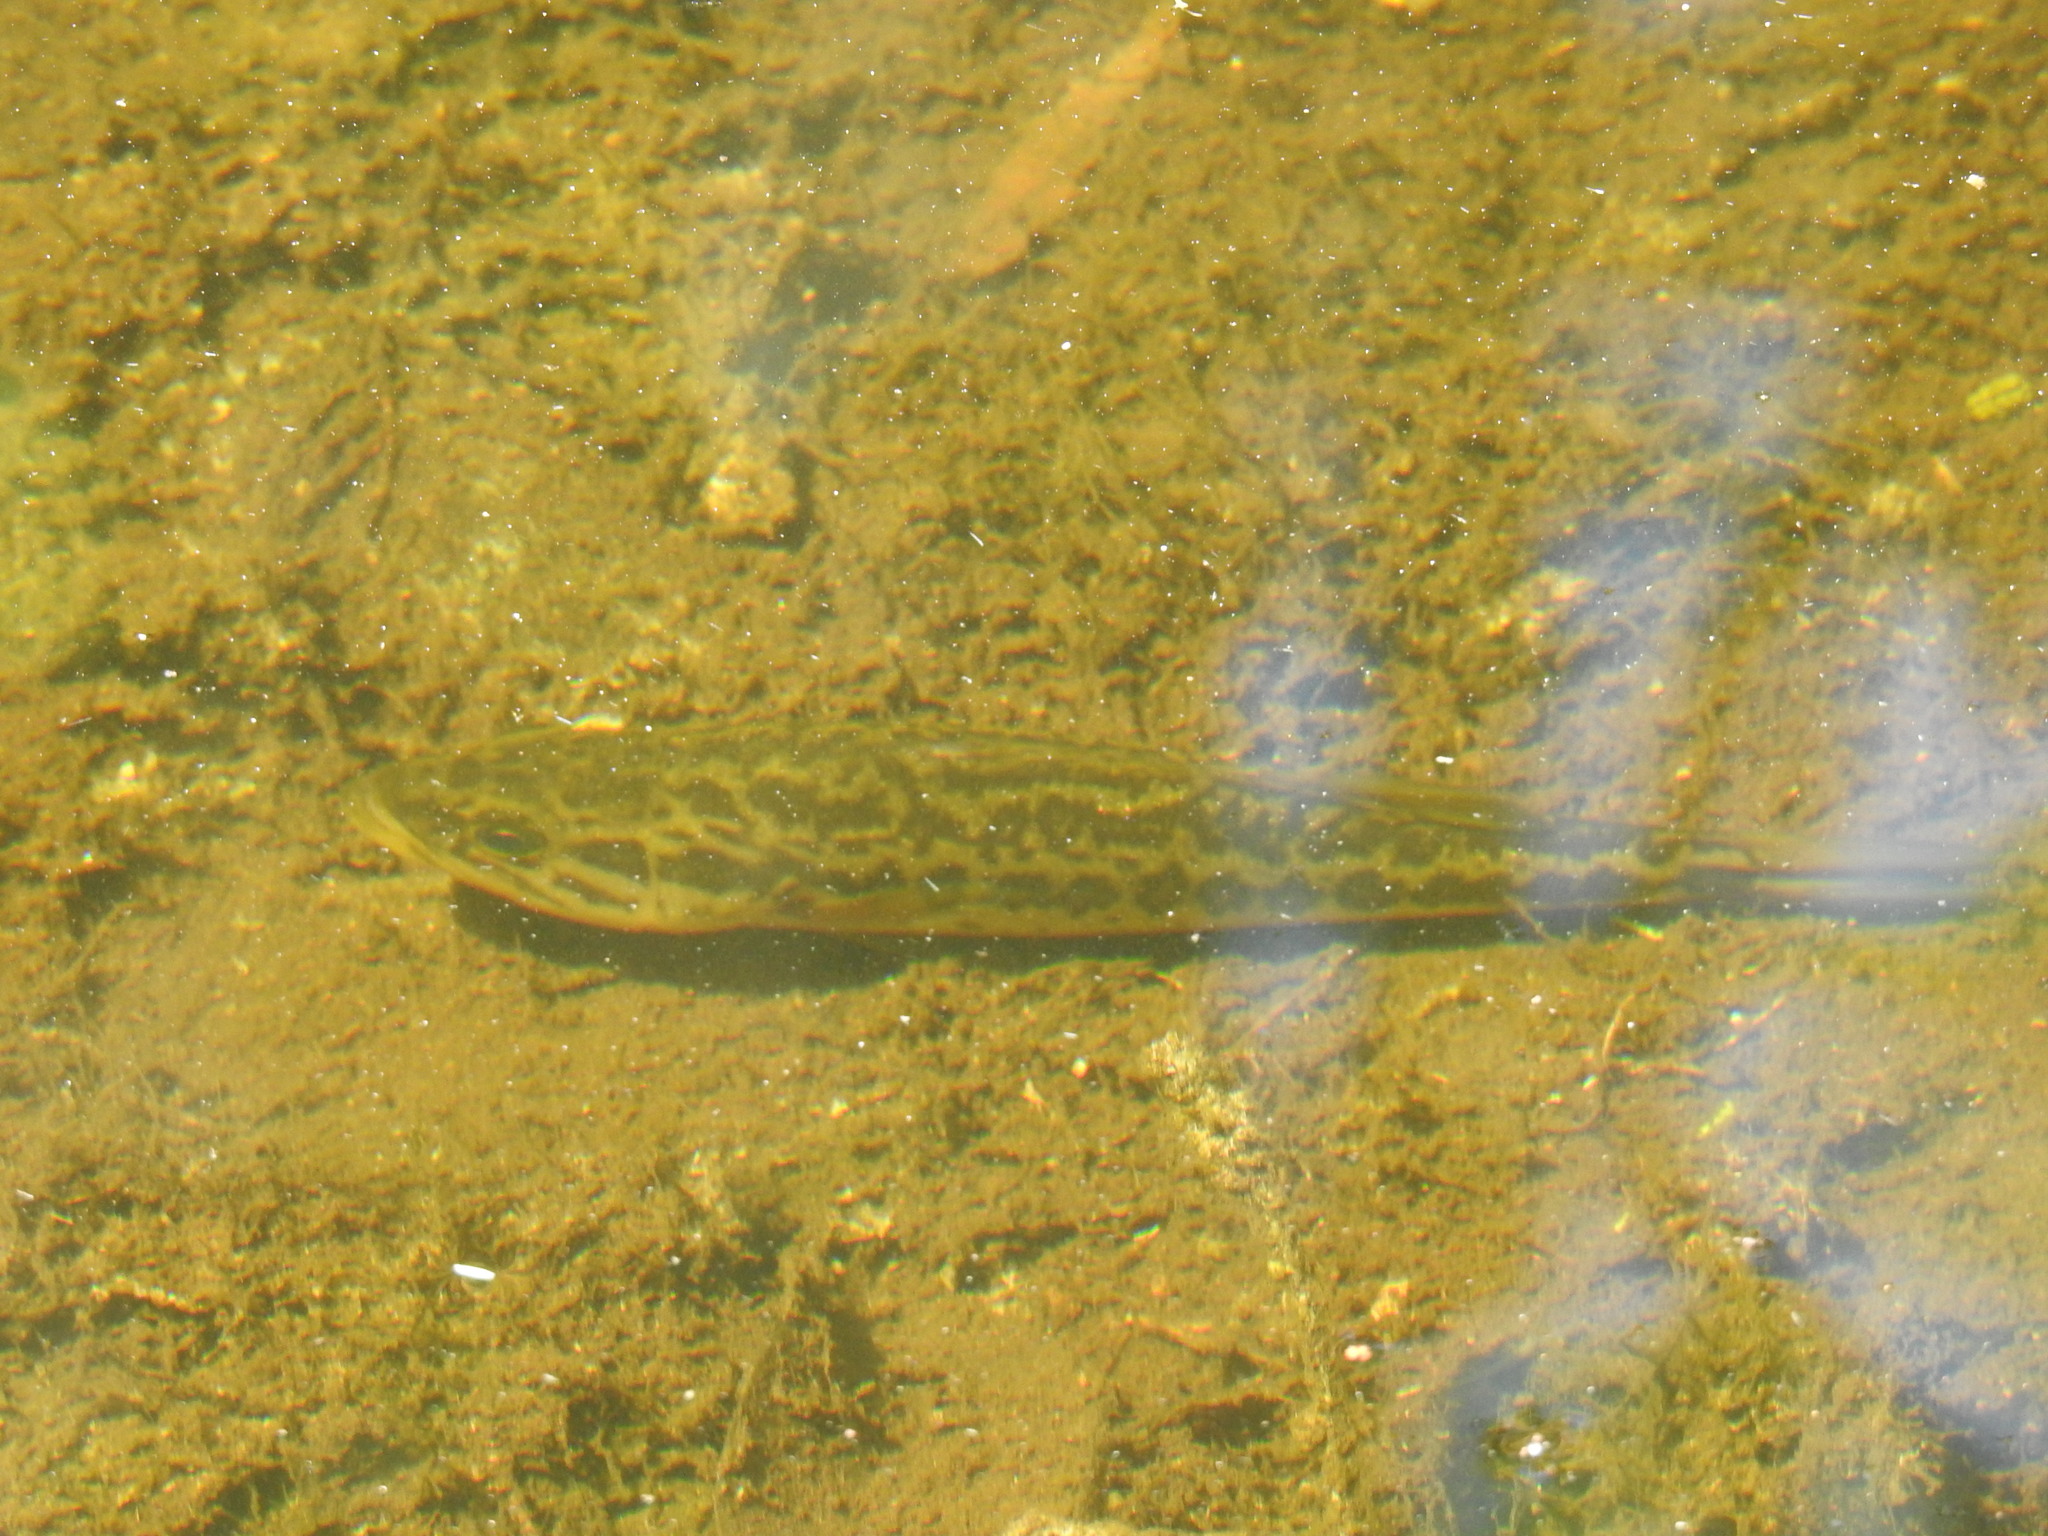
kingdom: Animalia
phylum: Chordata
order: Perciformes
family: Centrarchidae
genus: Micropterus
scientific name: Micropterus salmoides
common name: Largemouth bass
